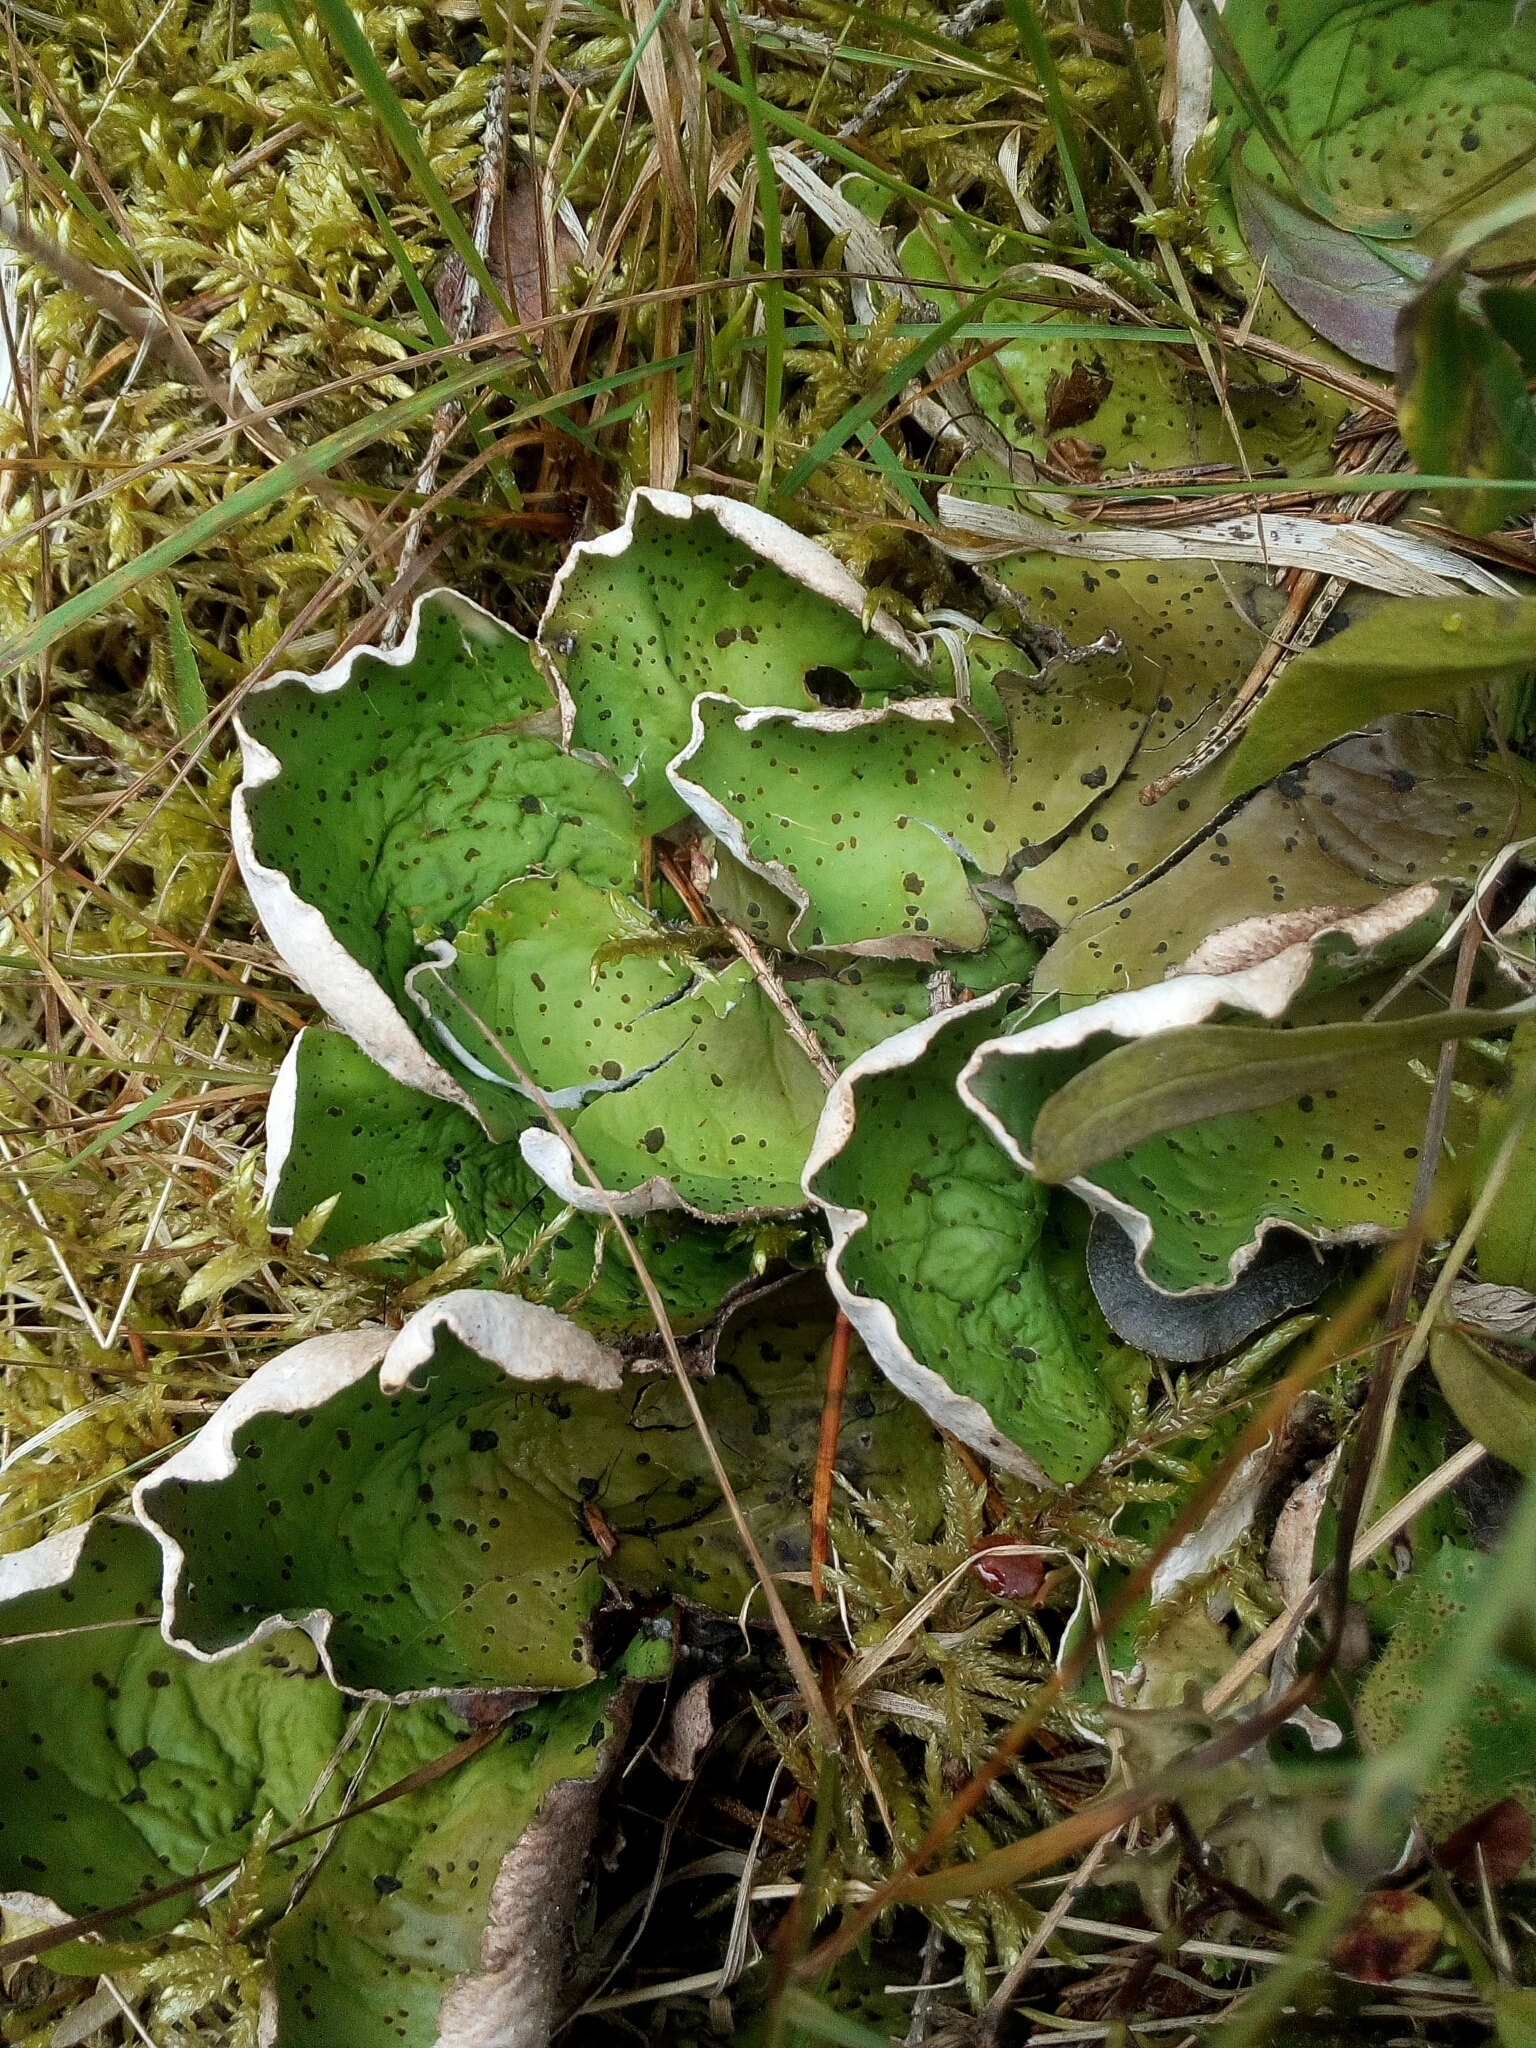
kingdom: Fungi
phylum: Ascomycota
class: Lecanoromycetes
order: Peltigerales
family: Peltigeraceae
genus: Peltigera
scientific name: Peltigera aphthosa
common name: Common freckle pelt lichen
